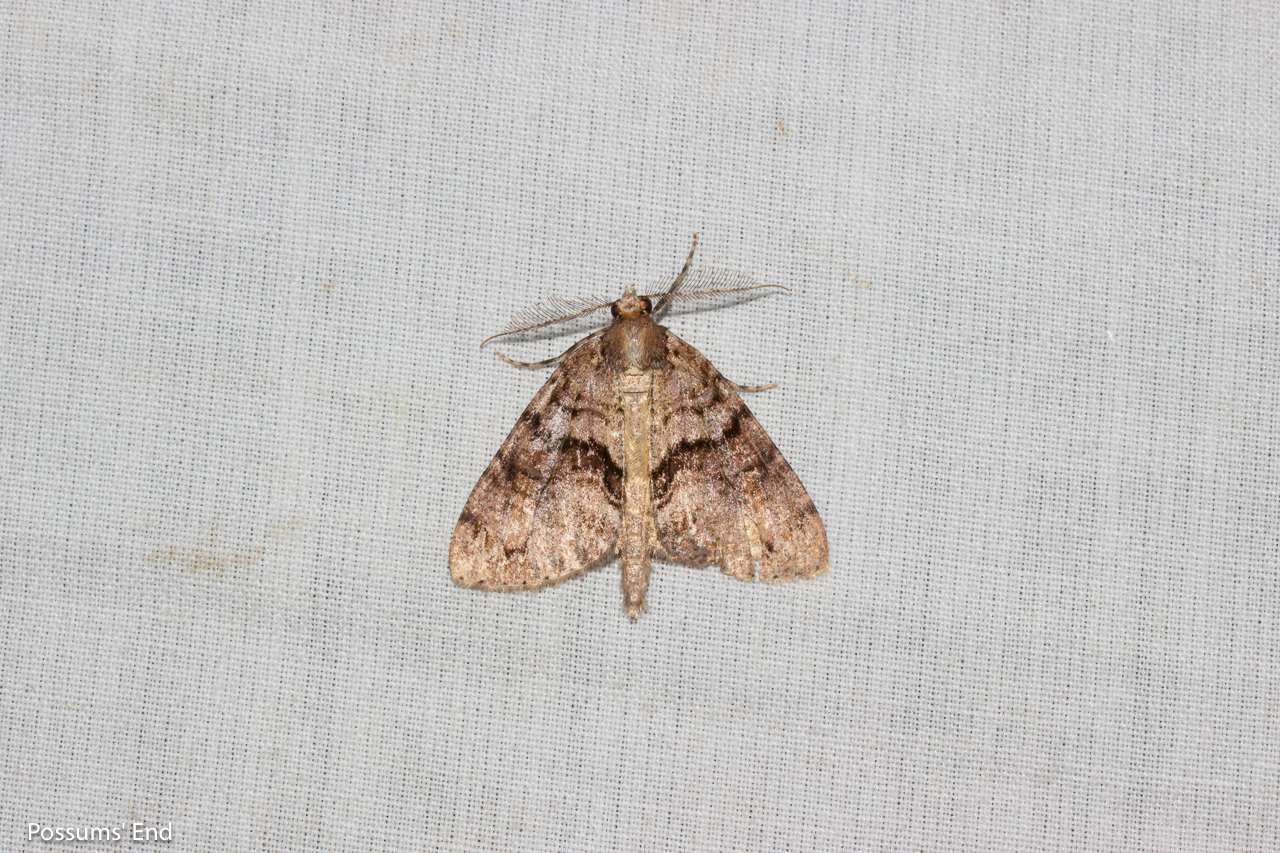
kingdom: Animalia
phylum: Arthropoda
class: Insecta
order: Lepidoptera
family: Geometridae
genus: Pseudocoremia
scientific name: Pseudocoremia suavis
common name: Common forest looper
